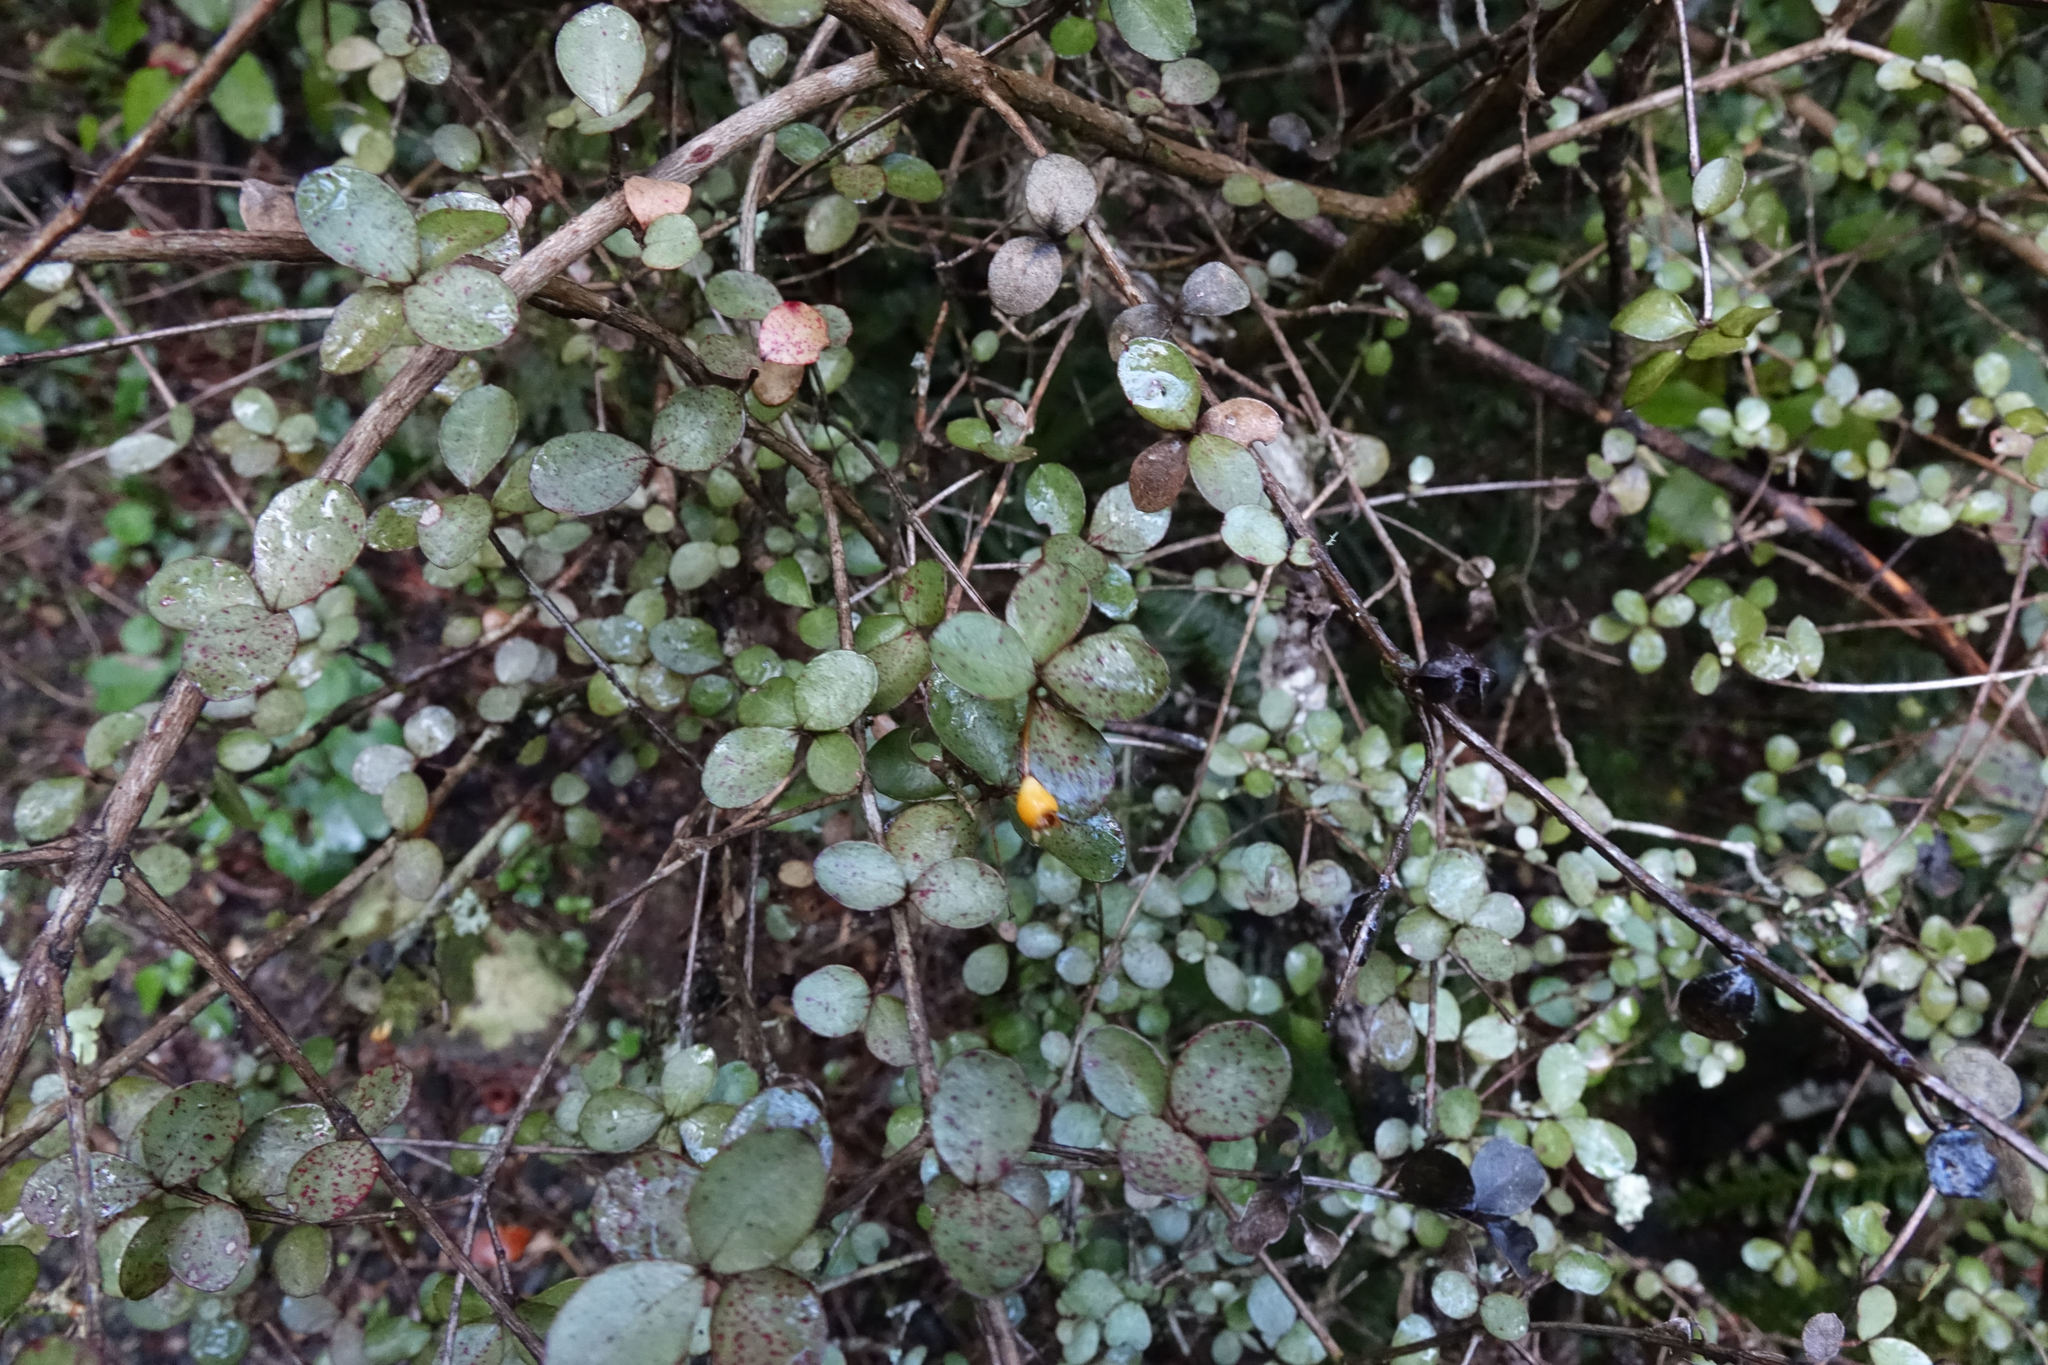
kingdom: Plantae
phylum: Tracheophyta
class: Magnoliopsida
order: Myrtales
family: Myrtaceae
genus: Neomyrtus
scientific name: Neomyrtus pedunculata
